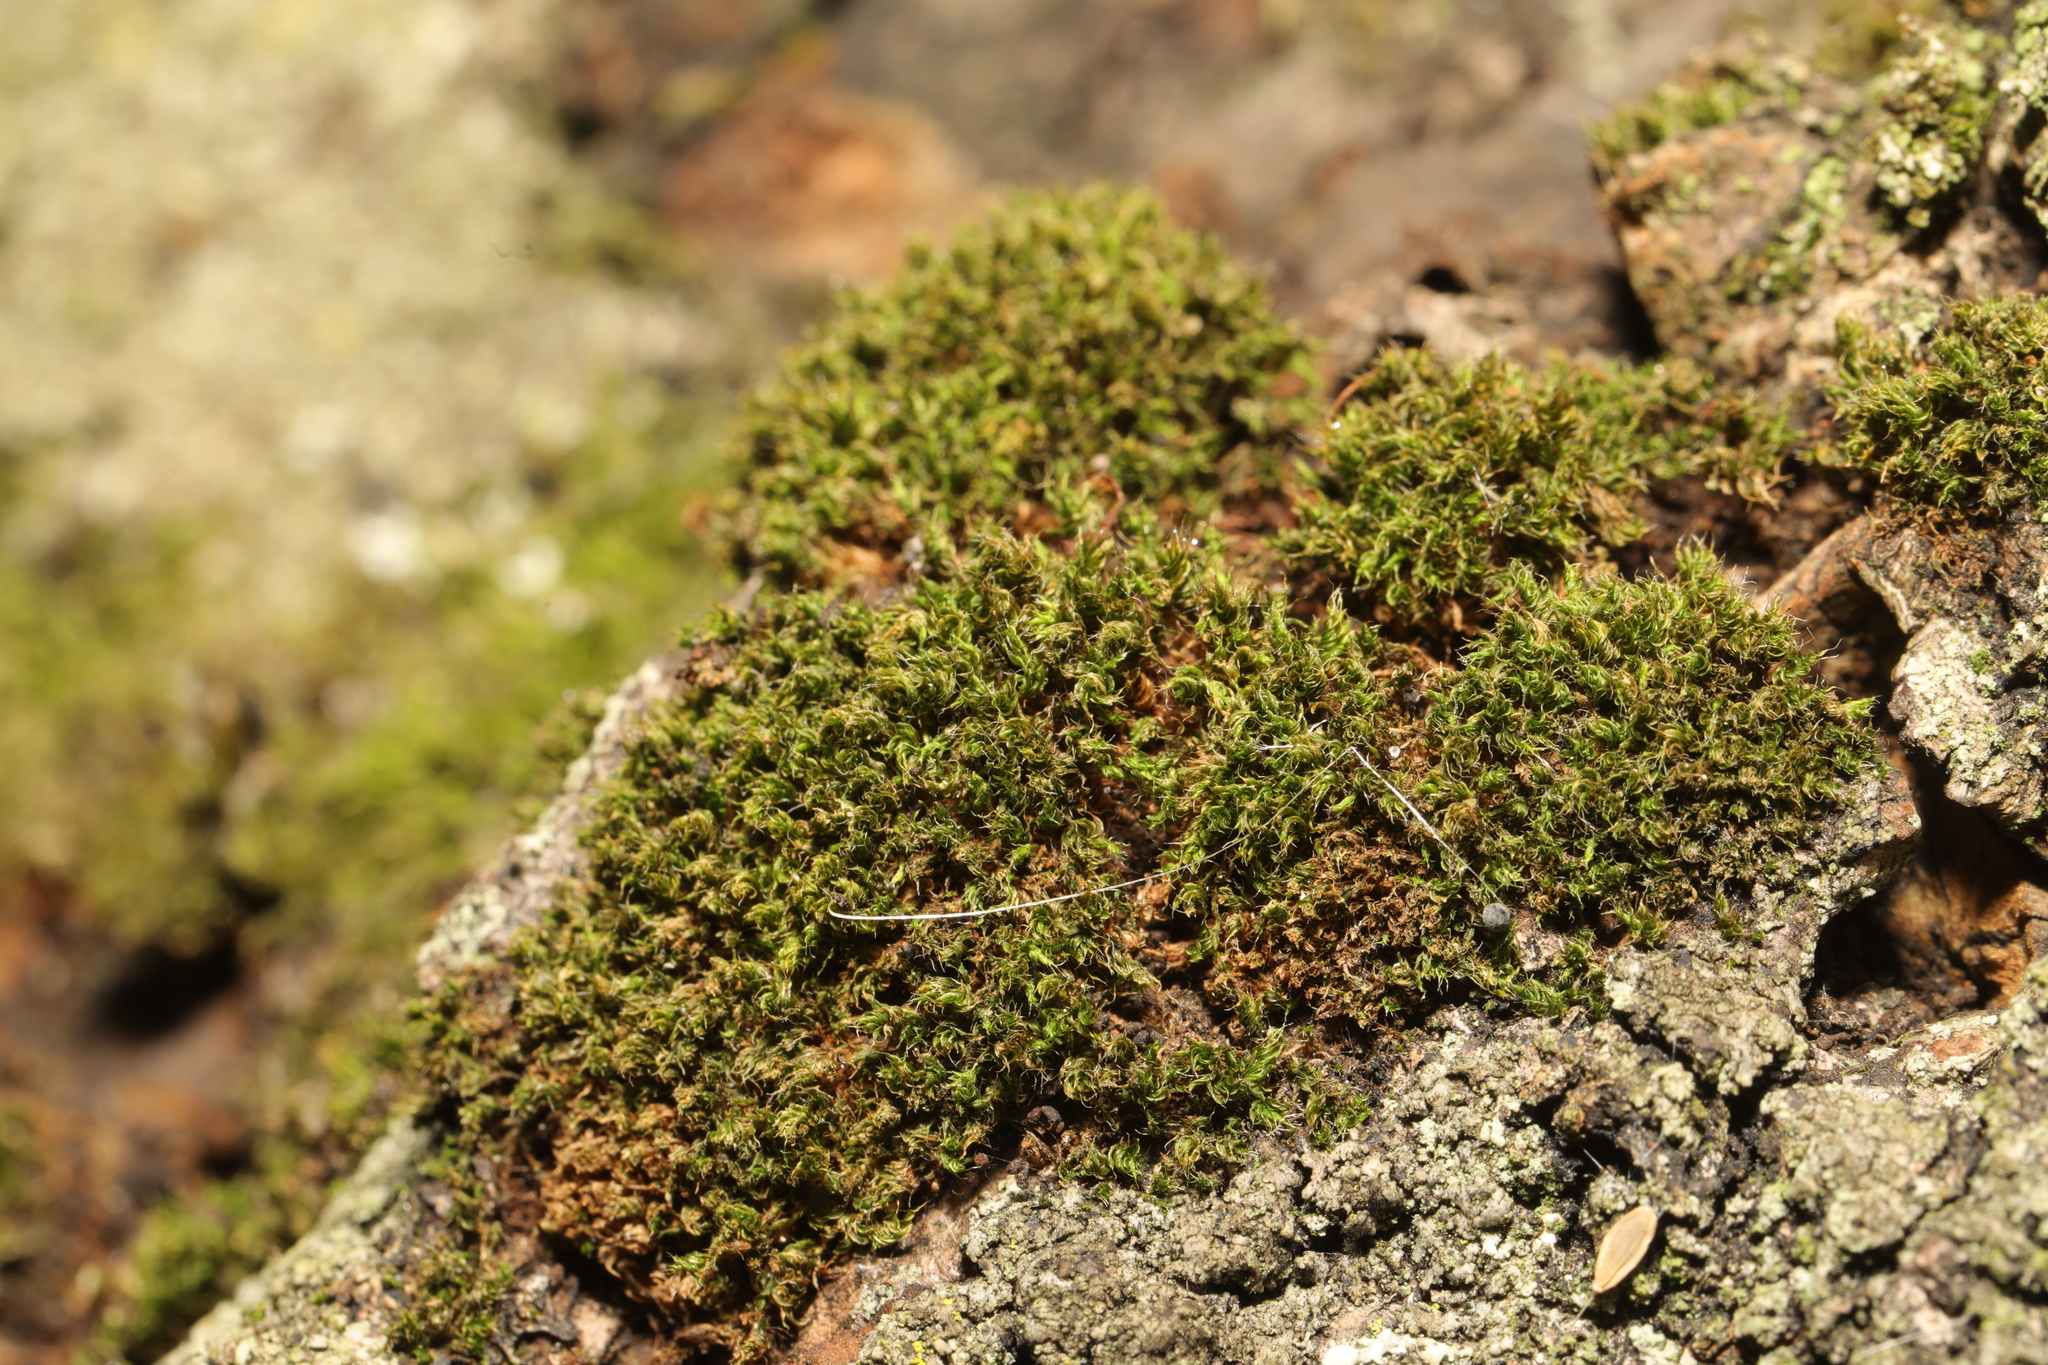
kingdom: Plantae
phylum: Bryophyta
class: Bryopsida
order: Bryales
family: Bryaceae
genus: Rosulabryum
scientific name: Rosulabryum capillare
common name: Capillary thread-moss
